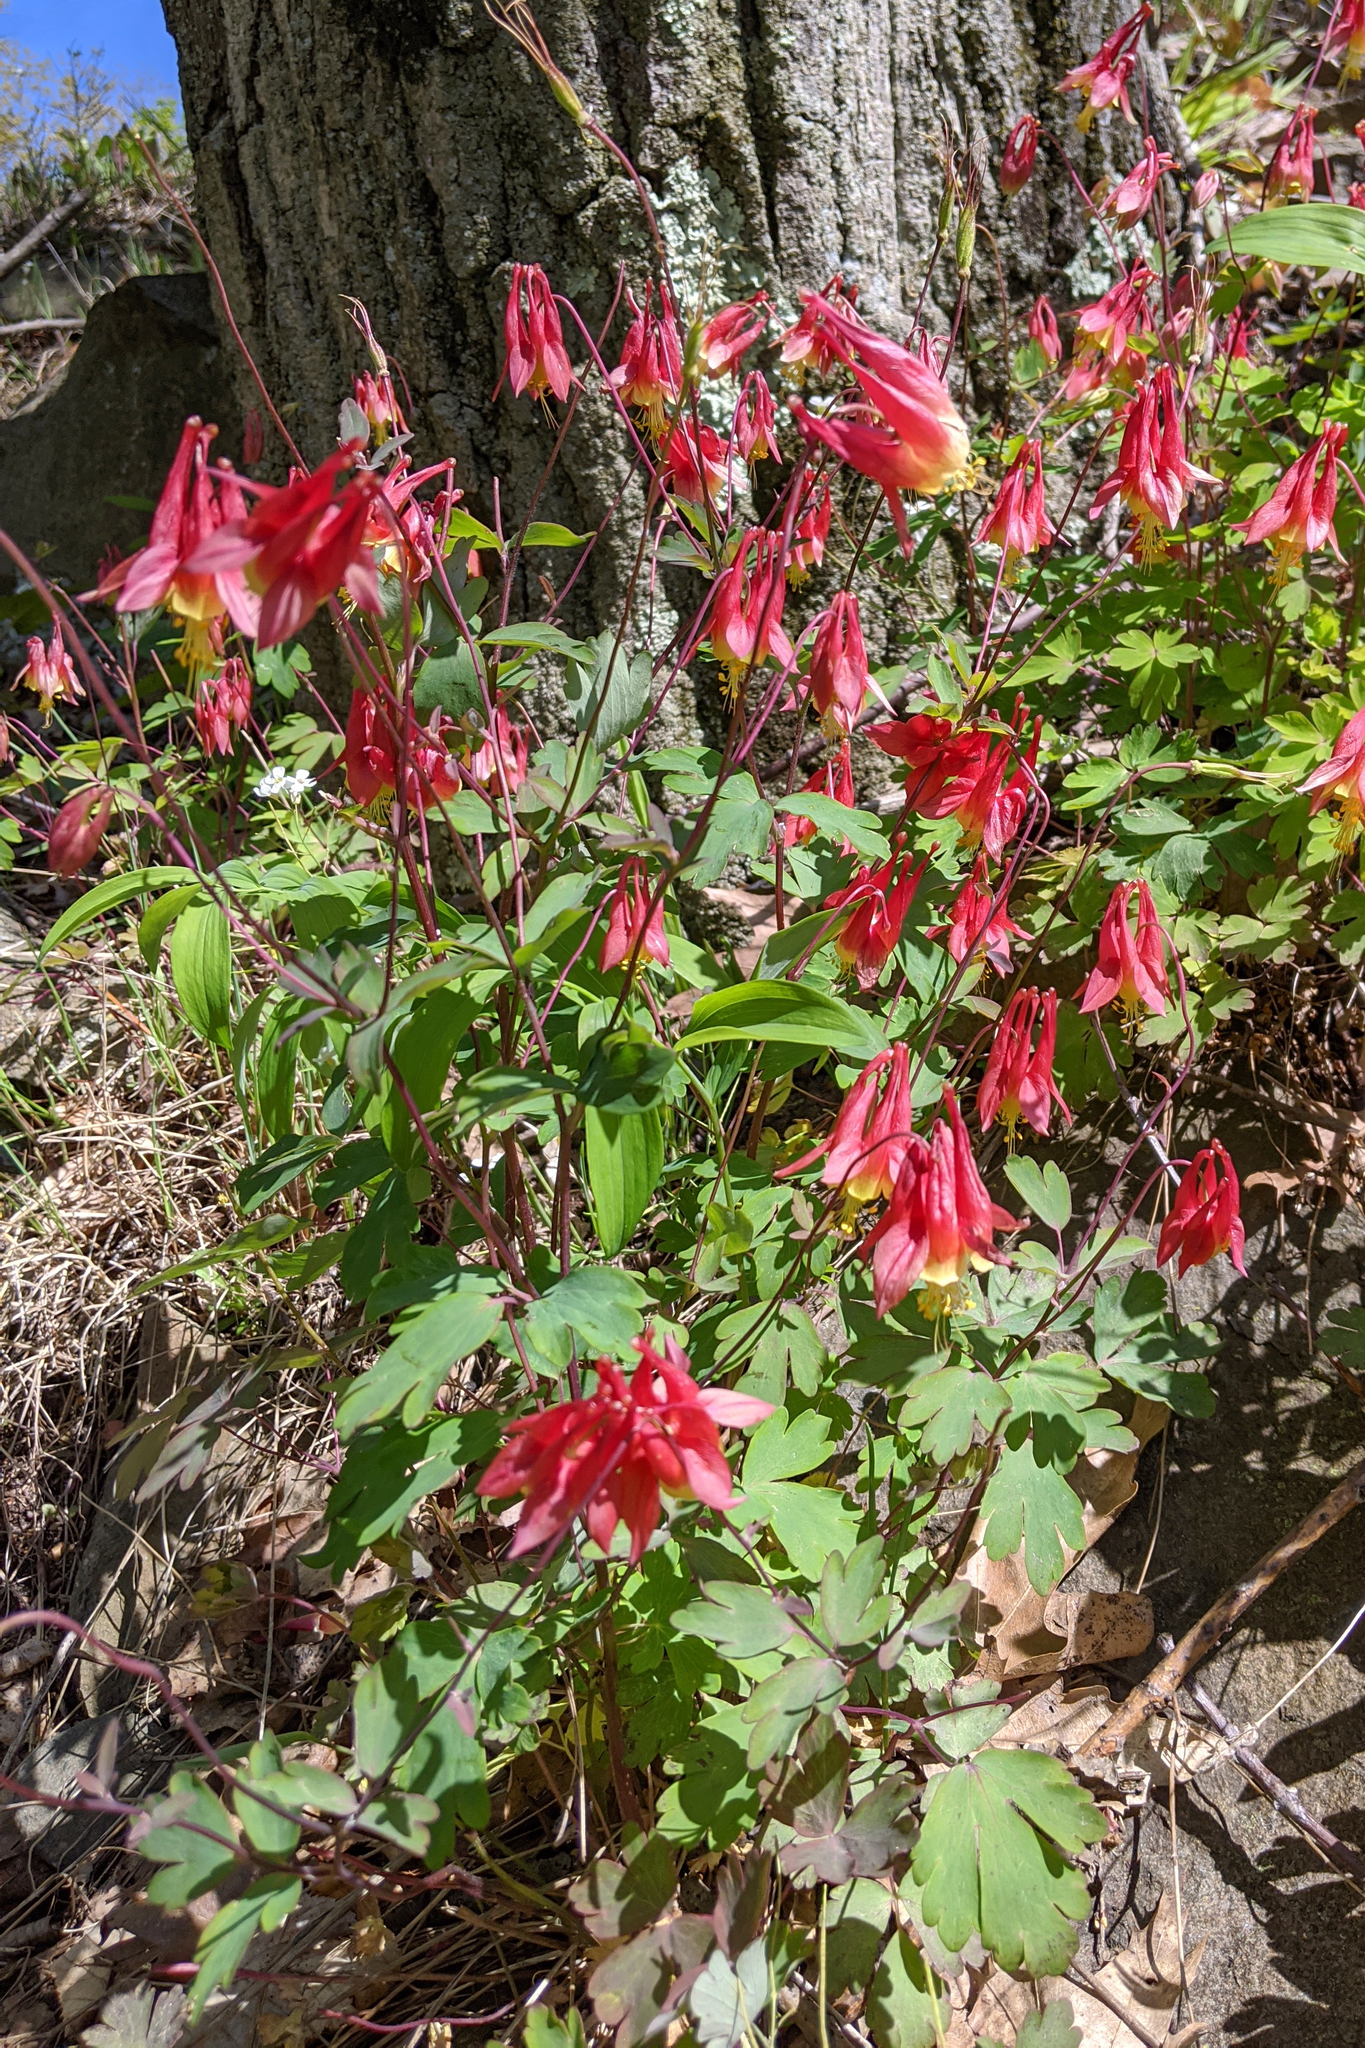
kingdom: Plantae
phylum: Tracheophyta
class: Magnoliopsida
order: Ranunculales
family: Ranunculaceae
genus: Aquilegia
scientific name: Aquilegia canadensis
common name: American columbine
